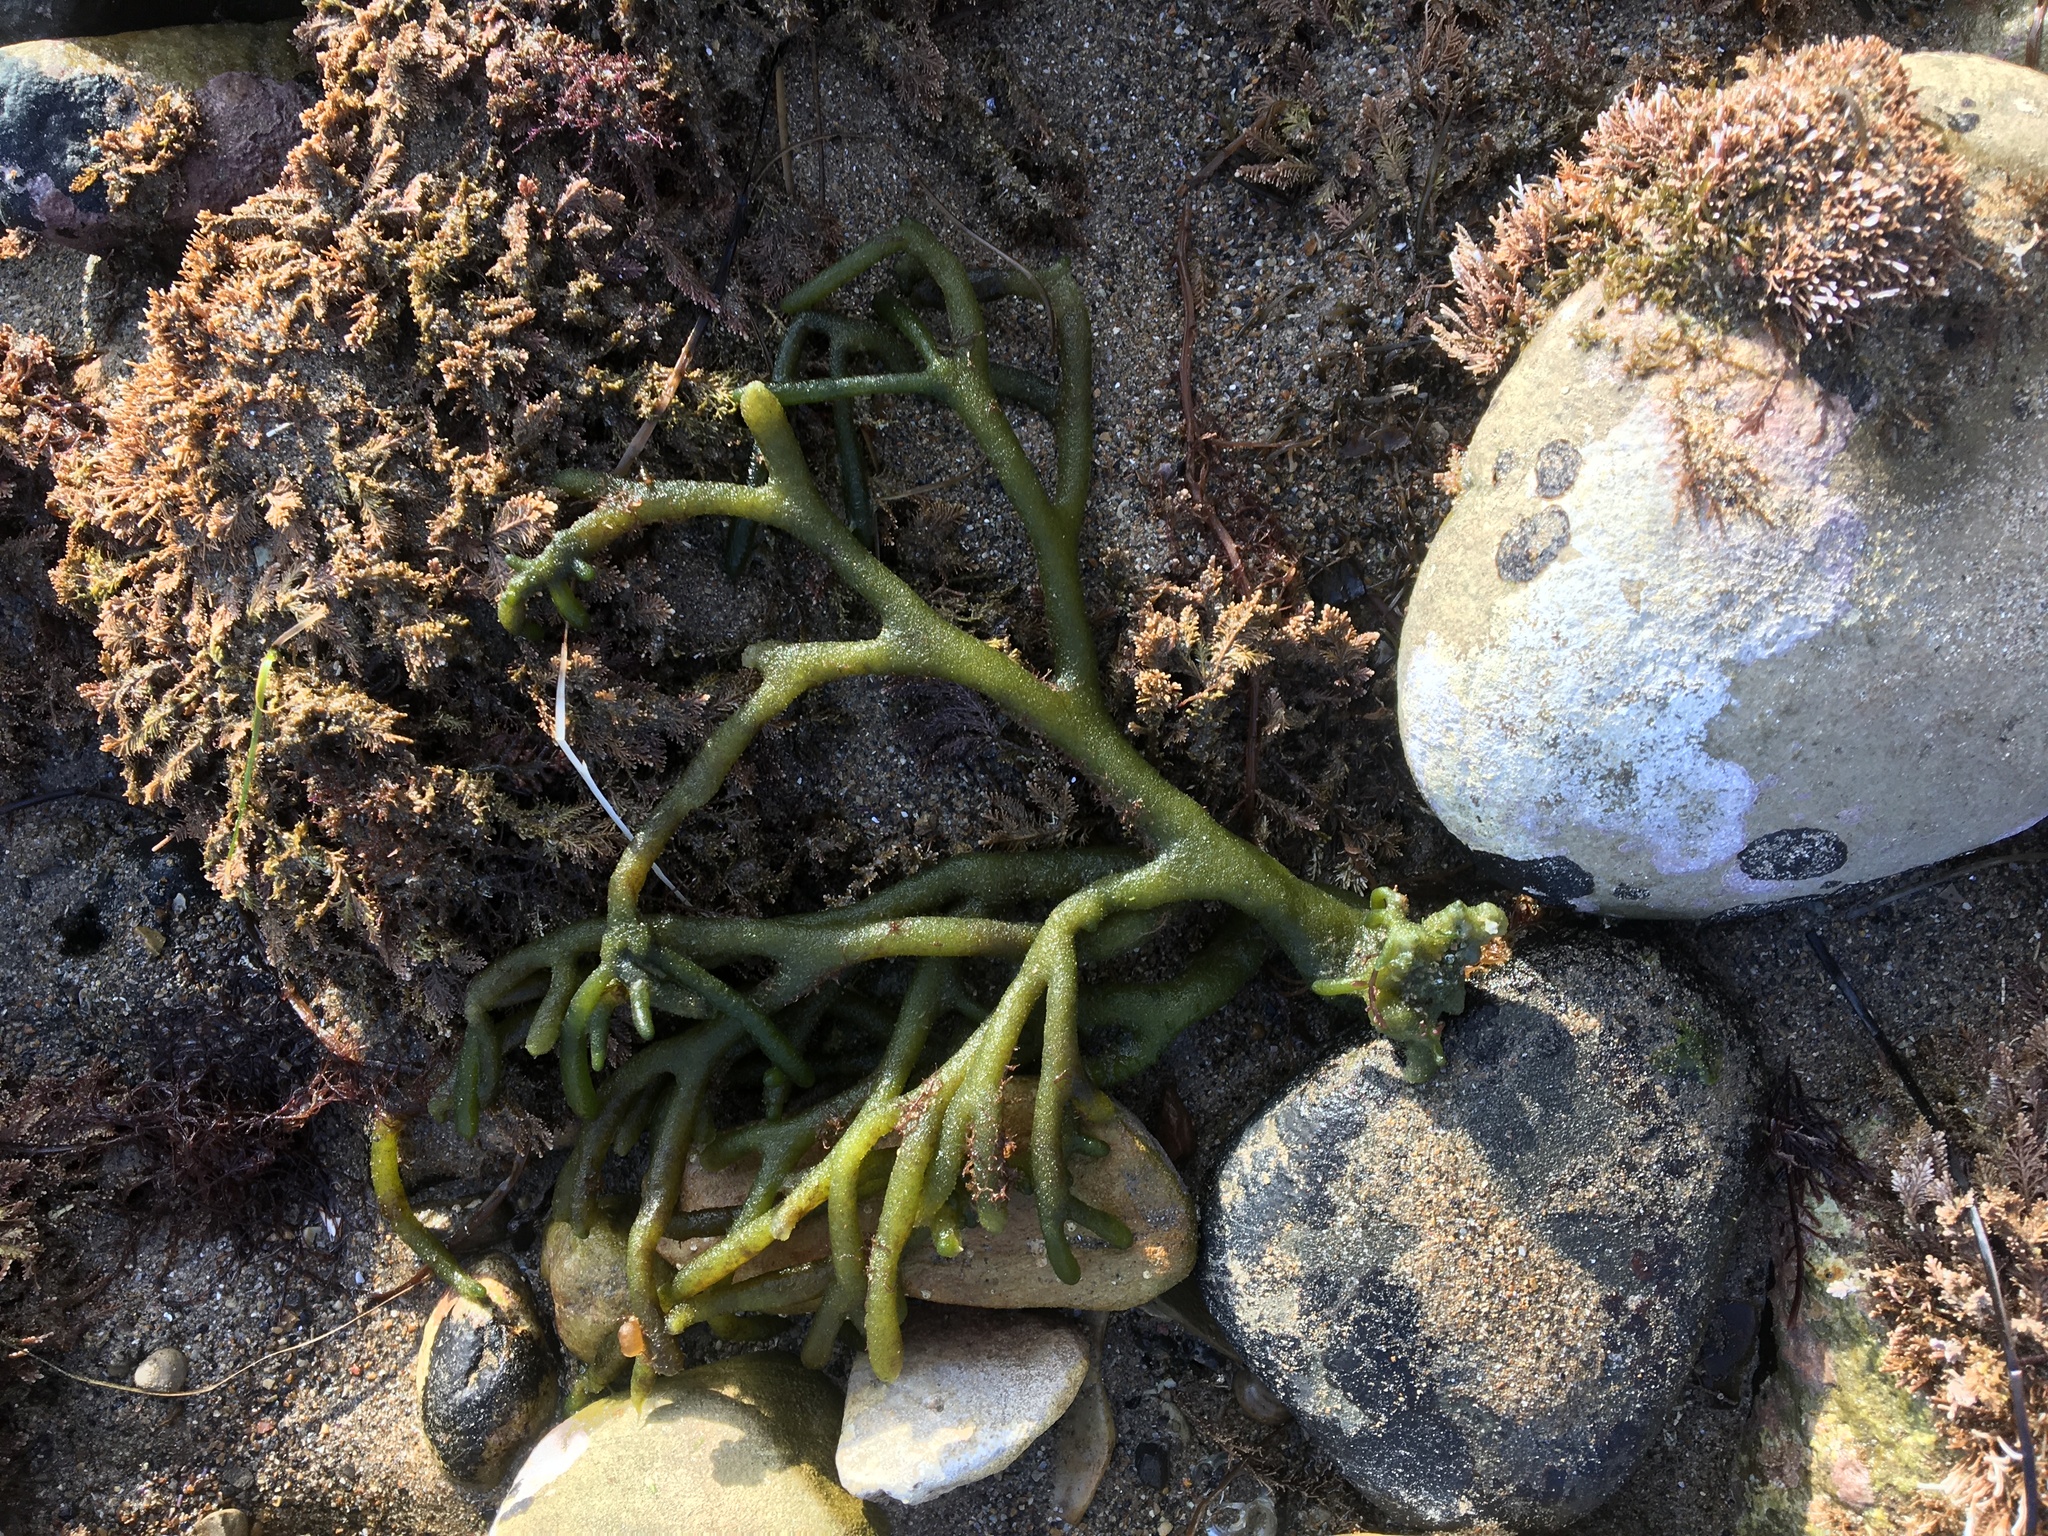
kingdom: Plantae
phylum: Chlorophyta
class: Ulvophyceae
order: Bryopsidales
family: Codiaceae
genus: Codium
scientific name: Codium fragile
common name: Dead man's fingers
